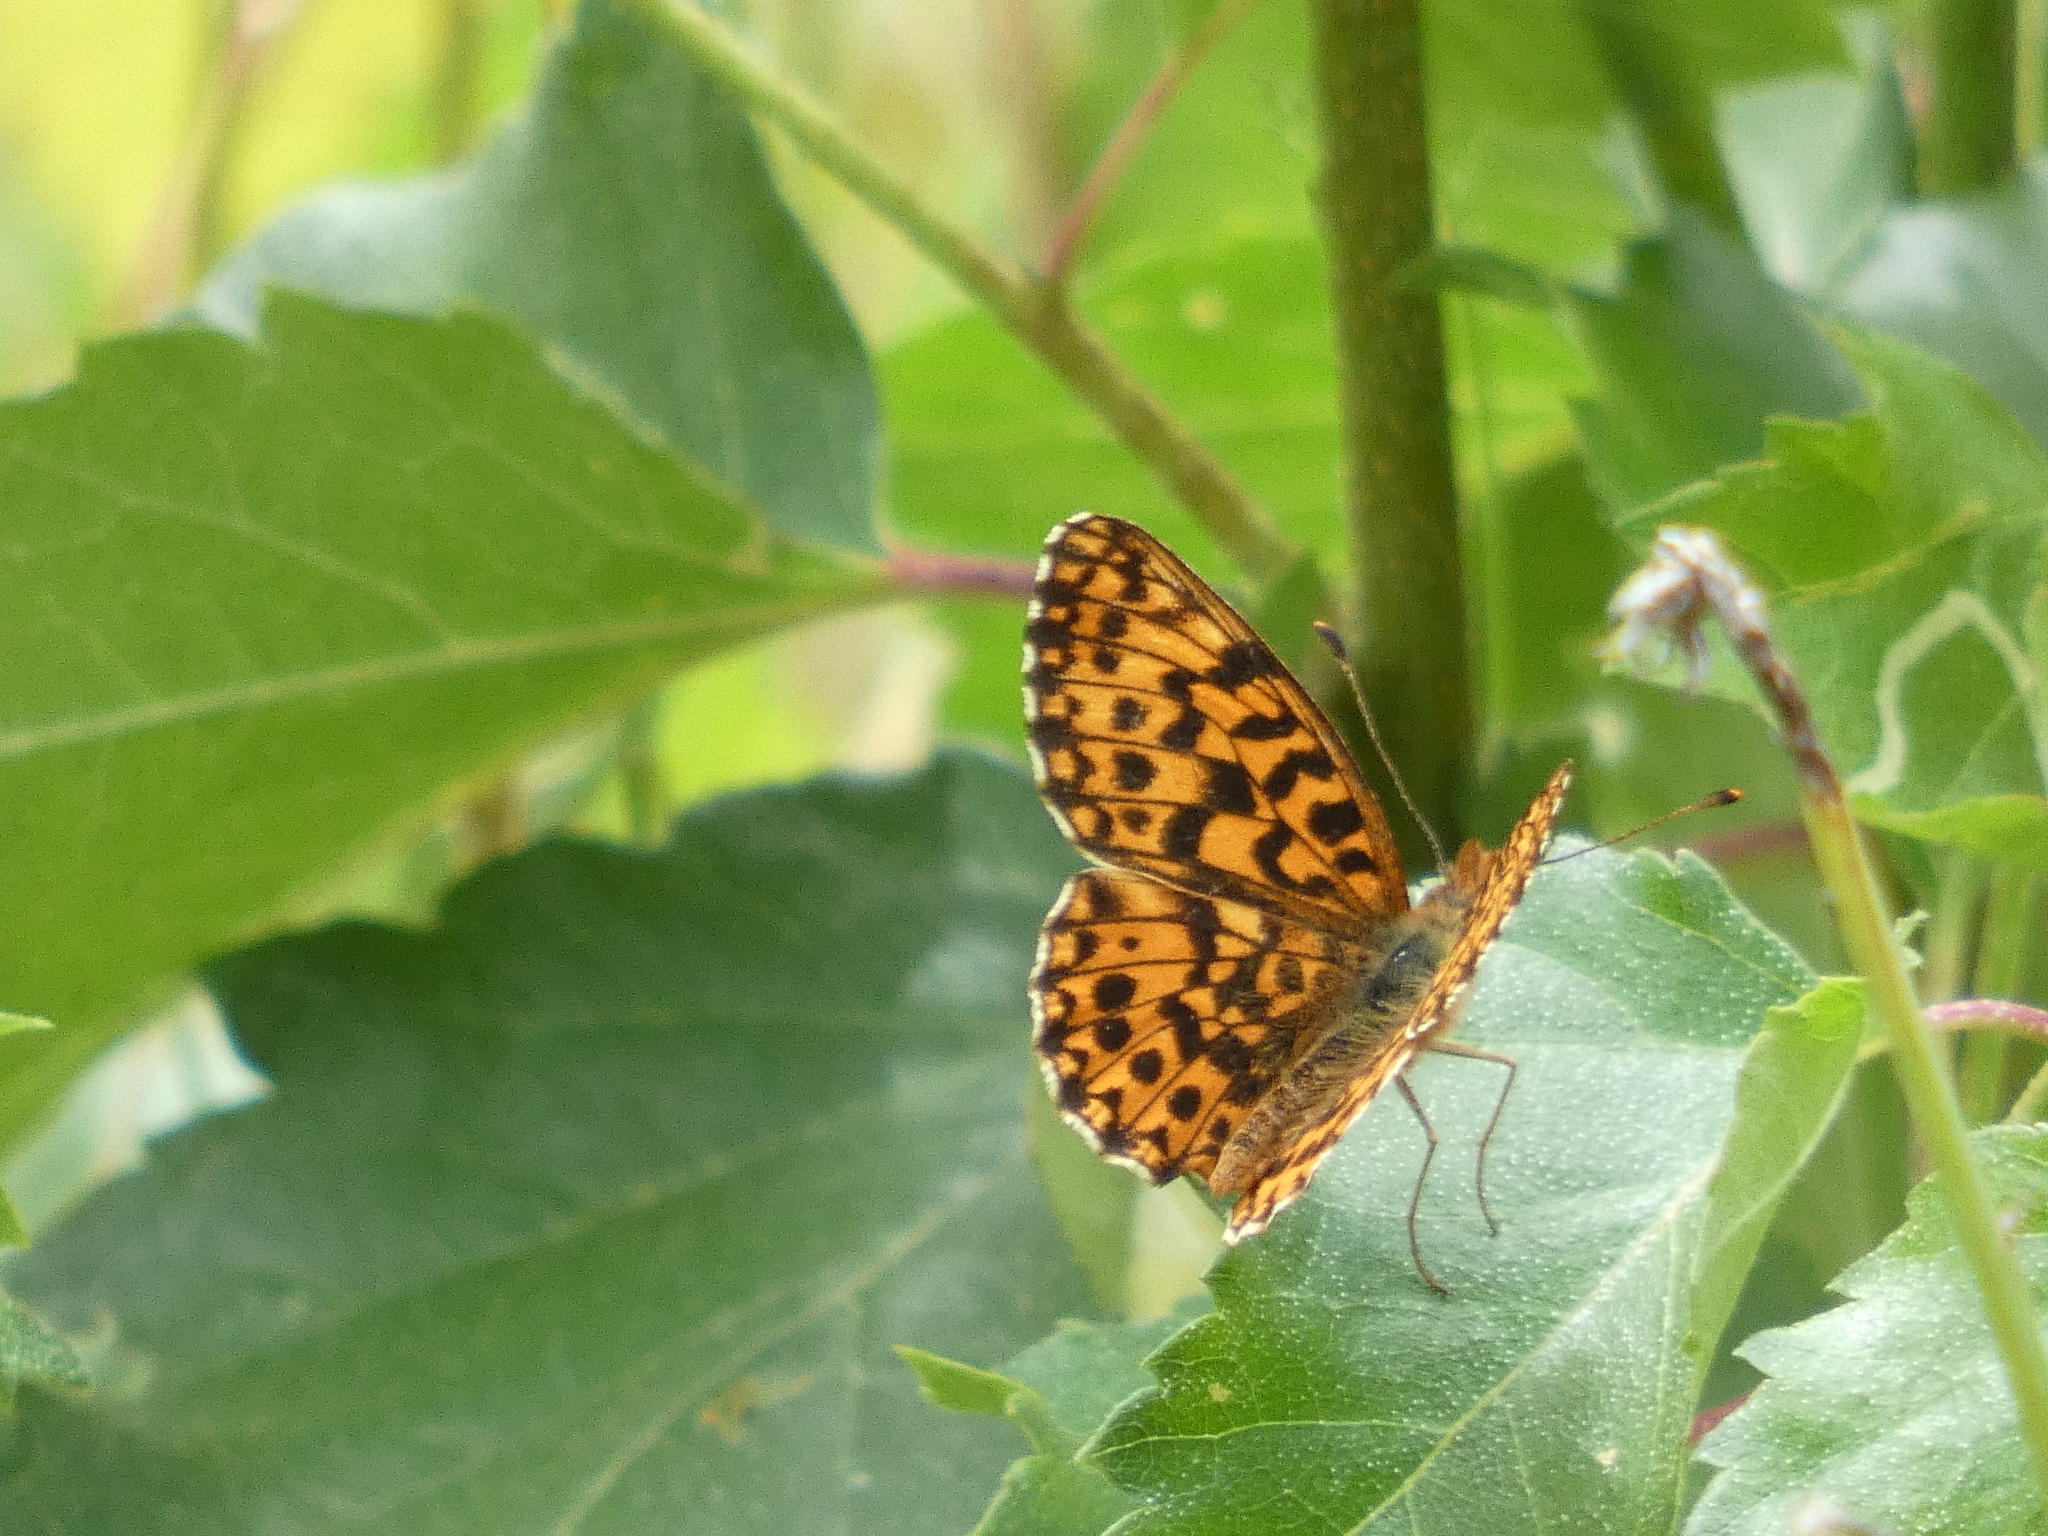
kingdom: Animalia
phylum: Arthropoda
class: Insecta
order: Lepidoptera
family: Nymphalidae
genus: Boloria
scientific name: Boloria dia
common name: Weaver's fritillary
